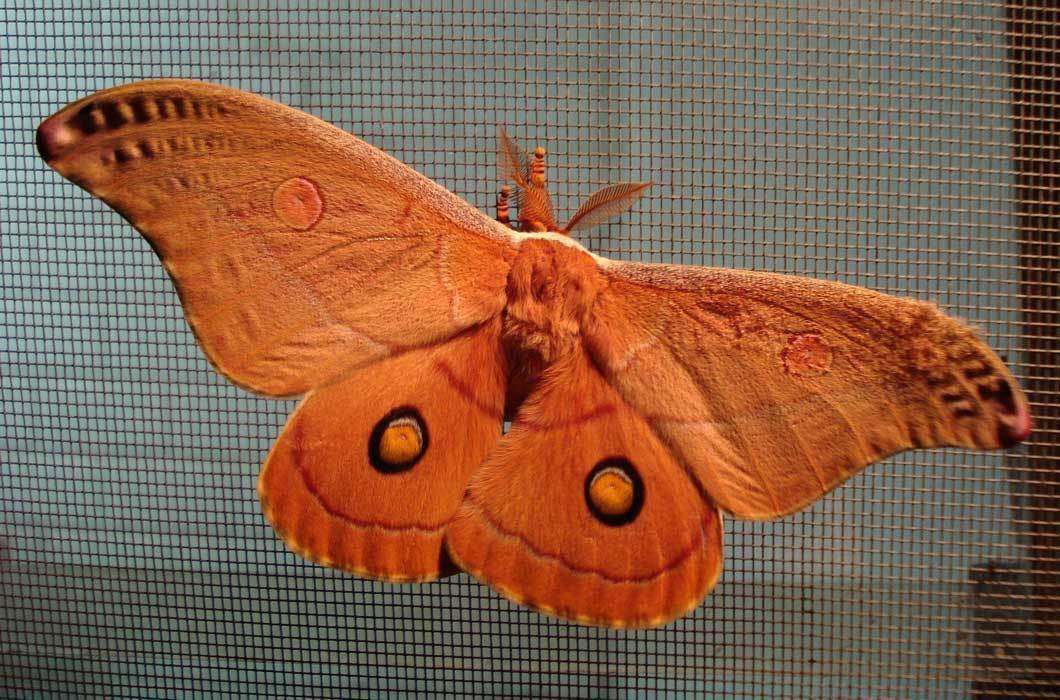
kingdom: Animalia
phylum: Arthropoda
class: Insecta
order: Lepidoptera
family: Saturniidae
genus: Opodiphthera
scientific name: Opodiphthera
